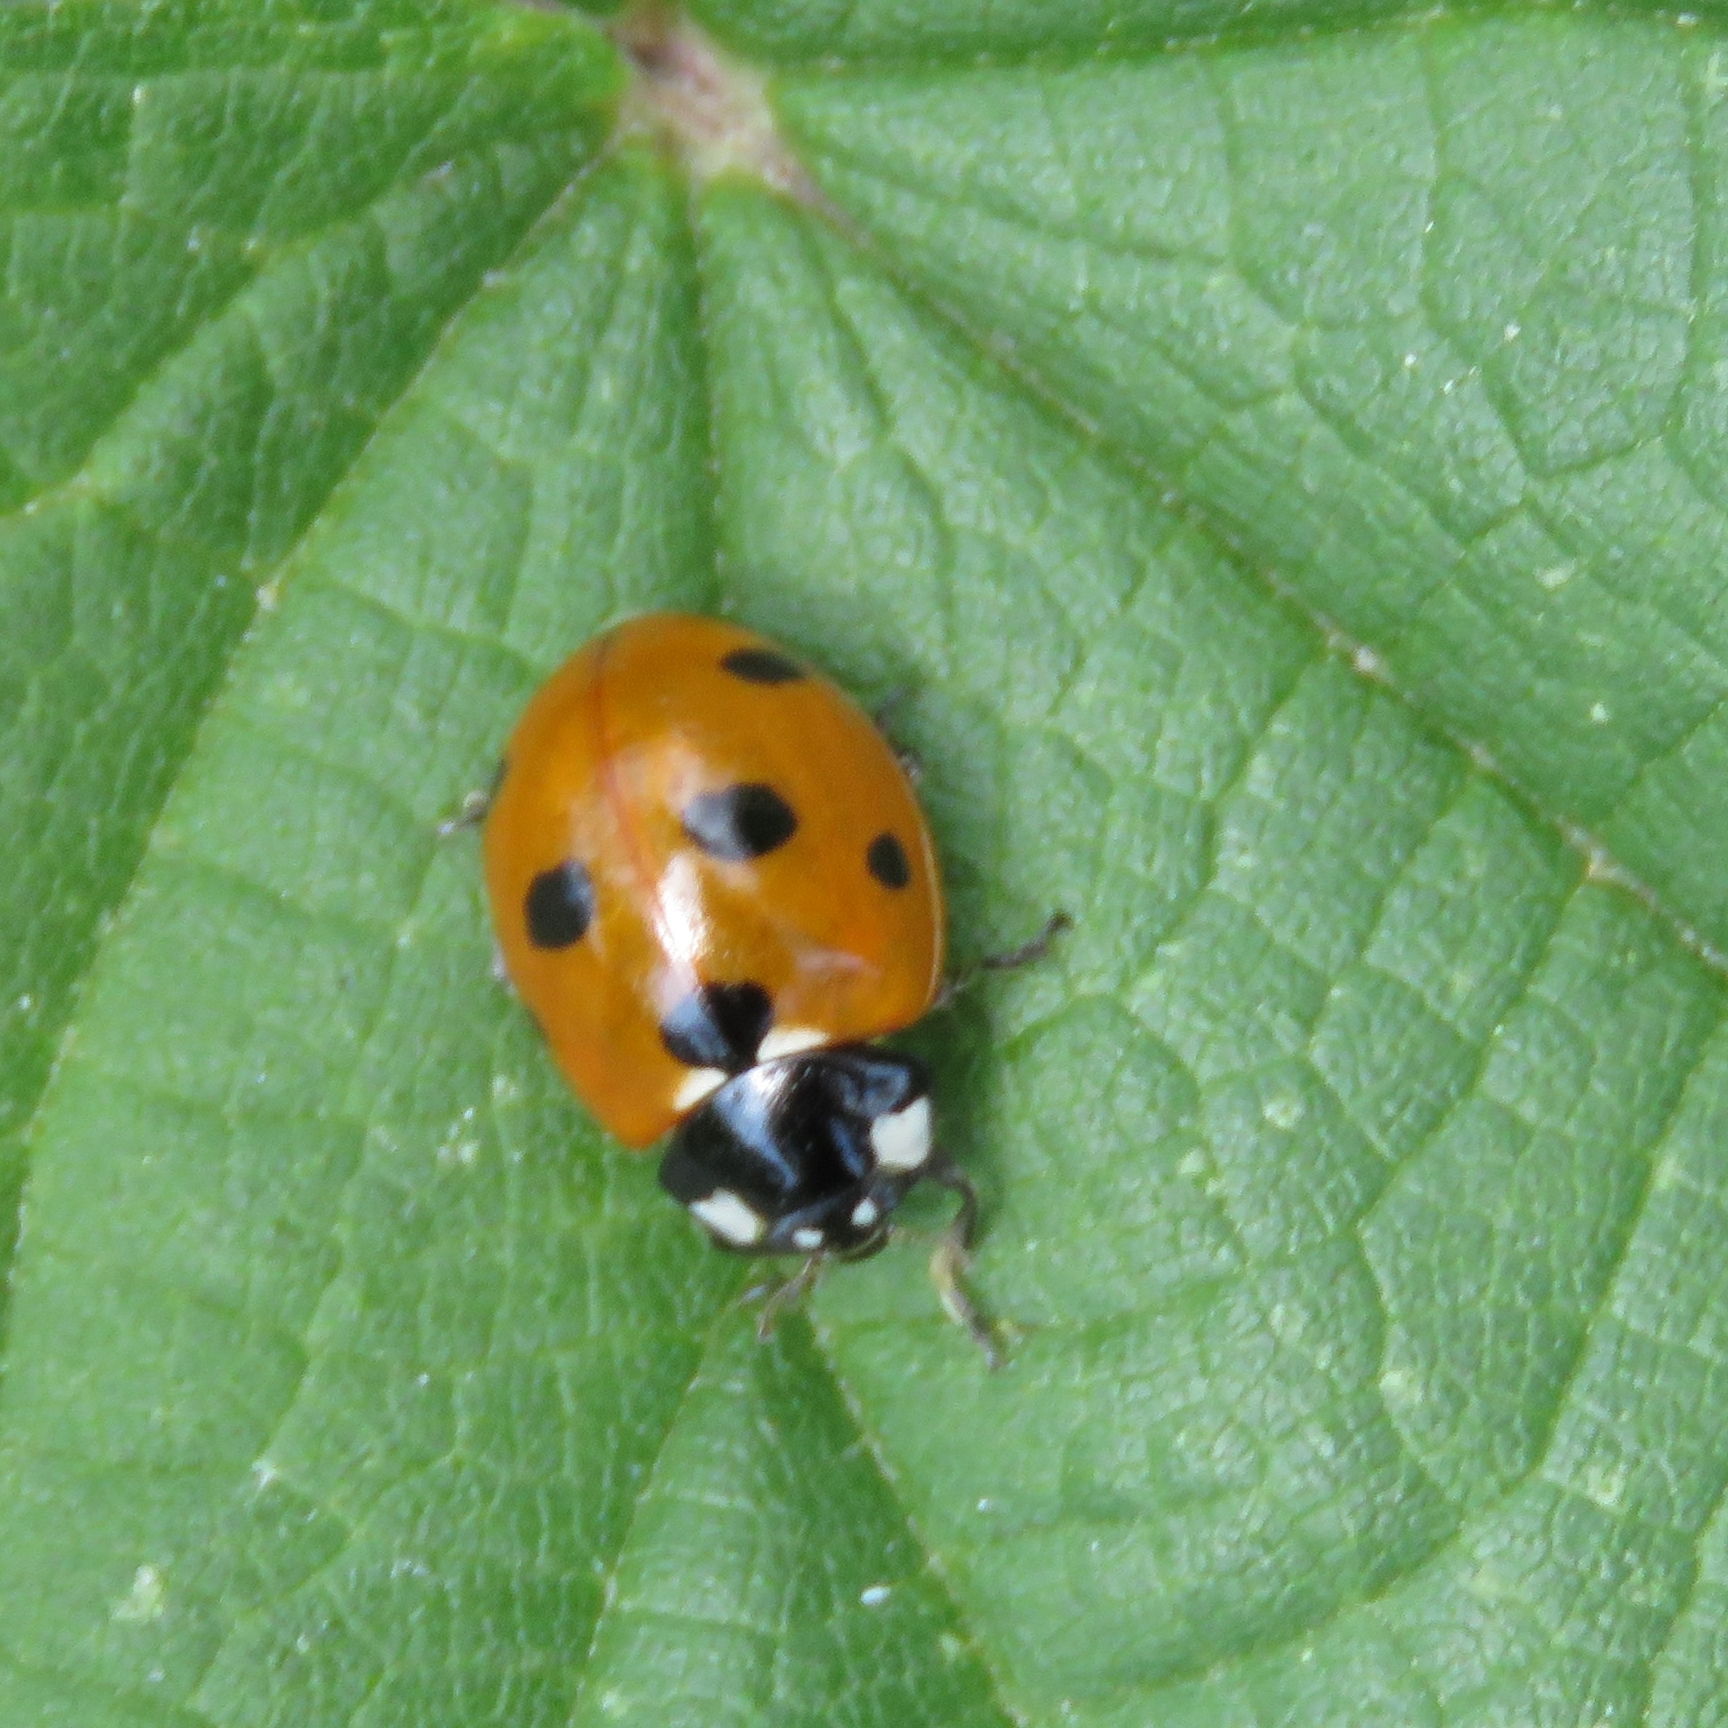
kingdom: Animalia
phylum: Arthropoda
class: Insecta
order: Coleoptera
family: Coccinellidae
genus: Coccinella
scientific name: Coccinella septempunctata
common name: Sevenspotted lady beetle
